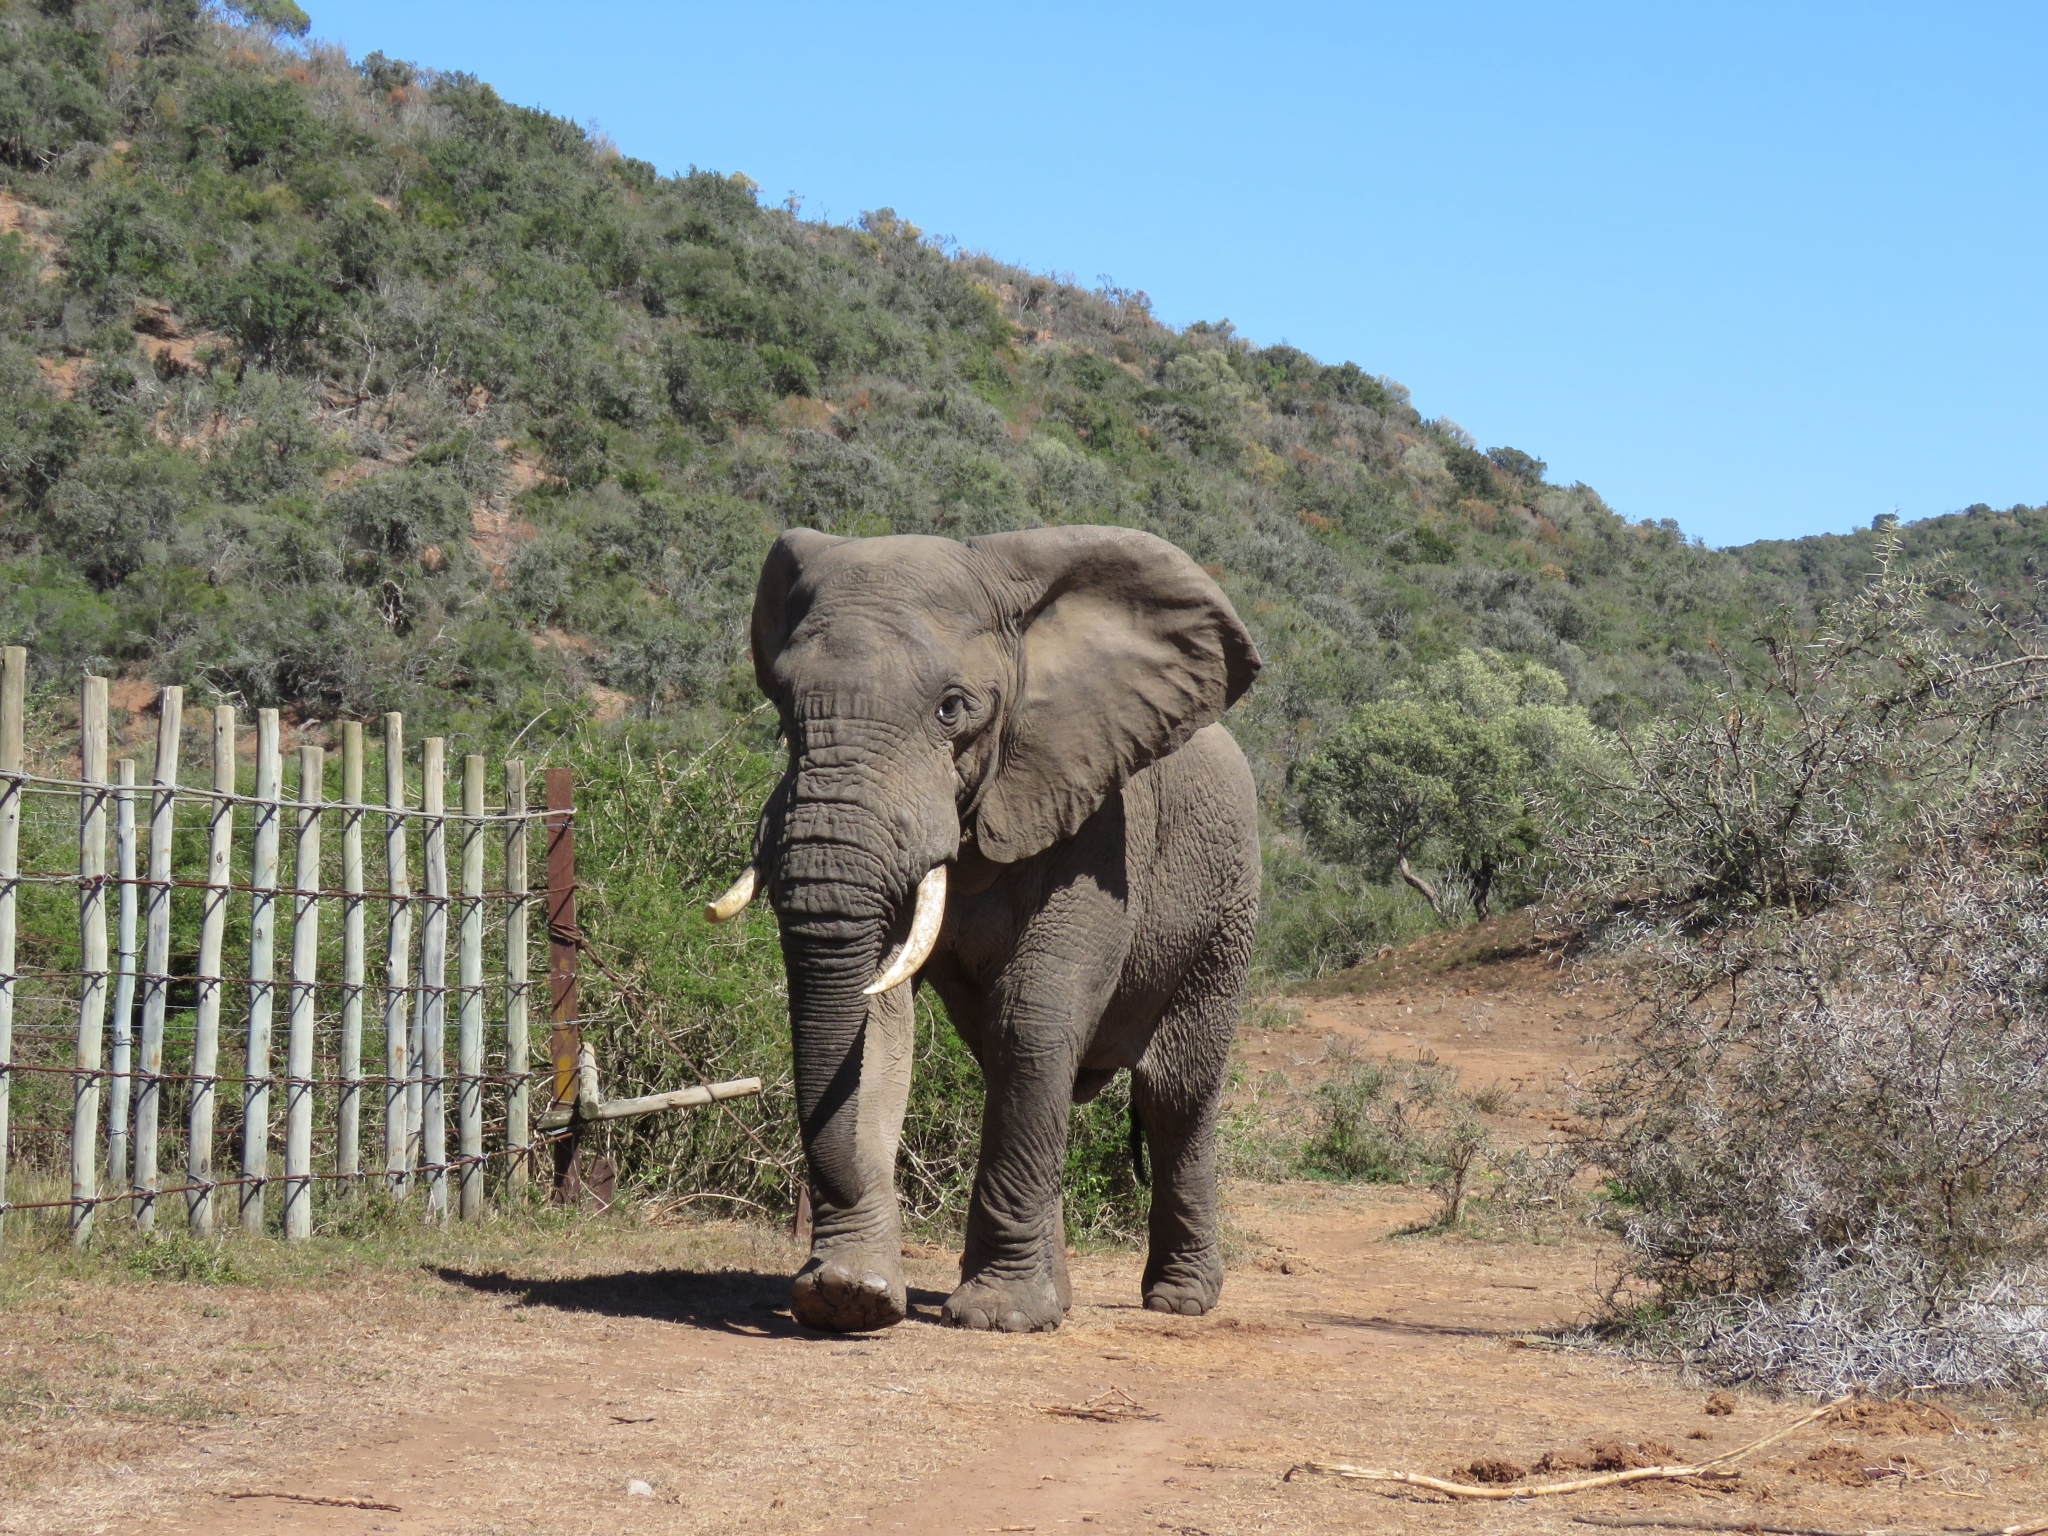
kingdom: Animalia
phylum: Chordata
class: Mammalia
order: Proboscidea
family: Elephantidae
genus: Loxodonta
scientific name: Loxodonta africana
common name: African elephant
